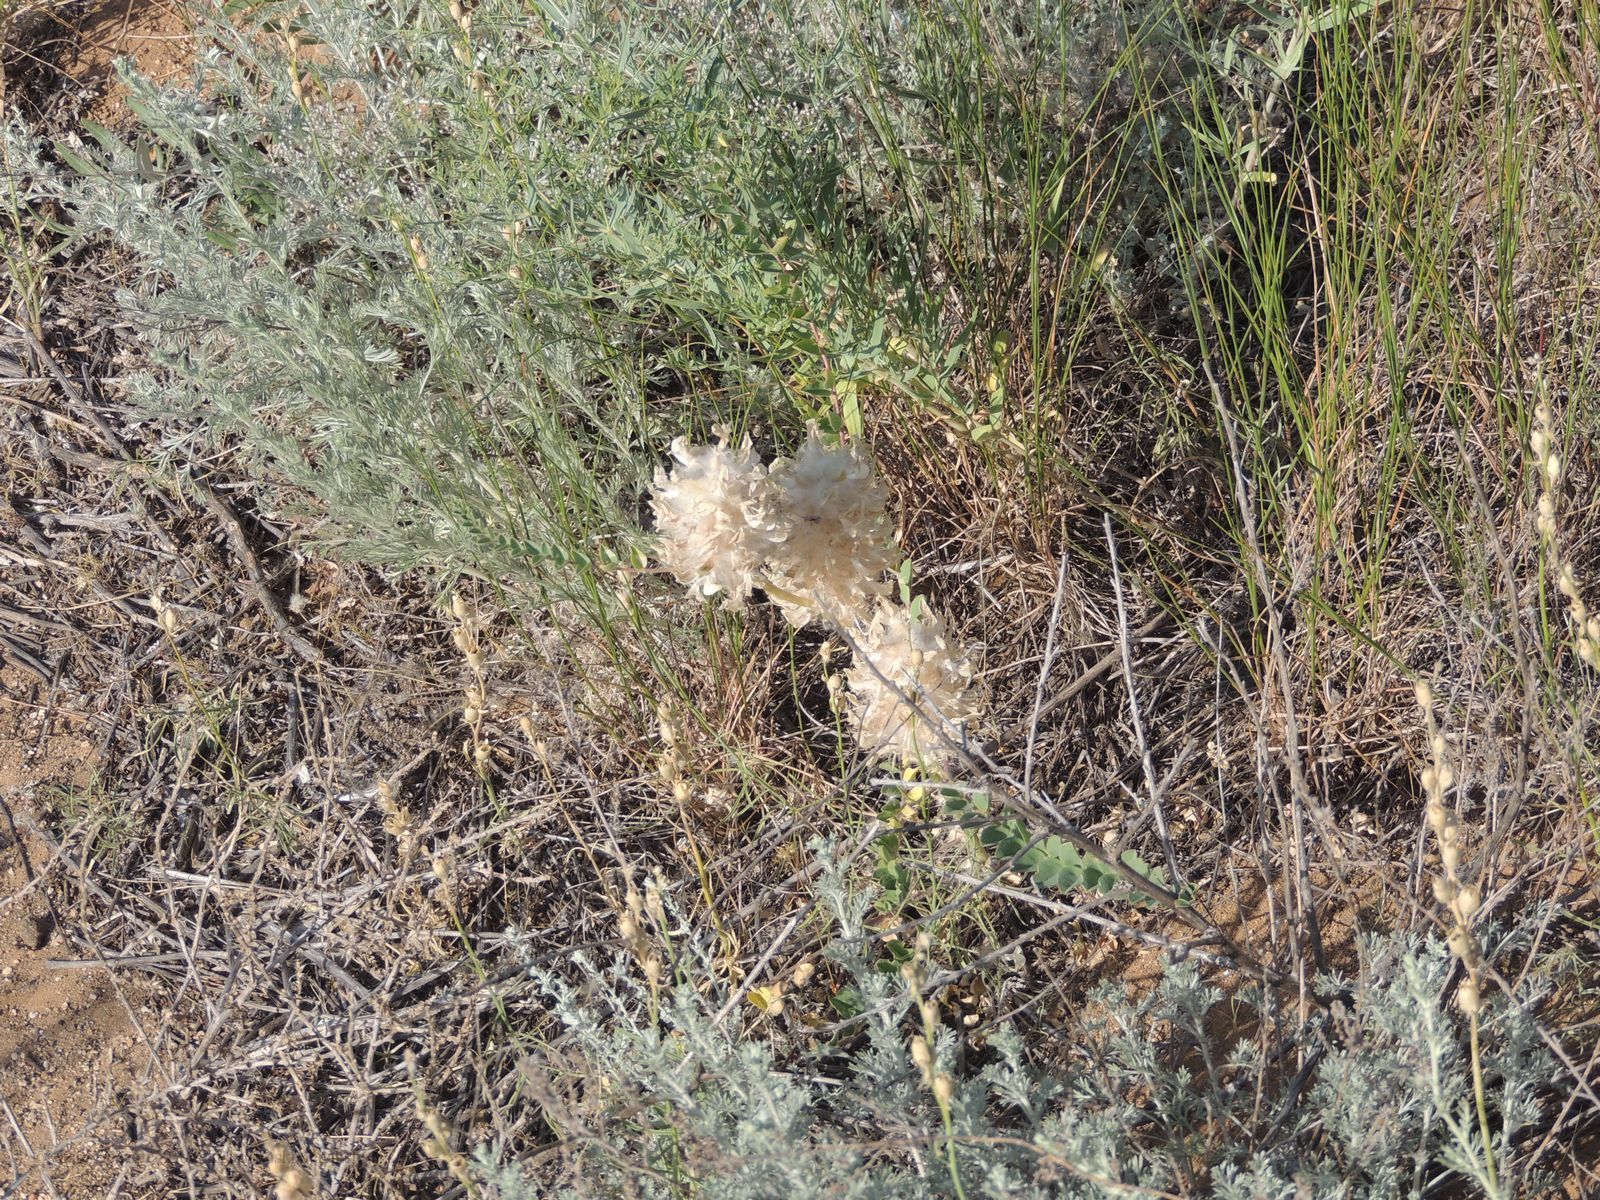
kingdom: Plantae
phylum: Tracheophyta
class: Magnoliopsida
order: Fabales
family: Fabaceae
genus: Astragalus
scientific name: Astragalus vulpinus
